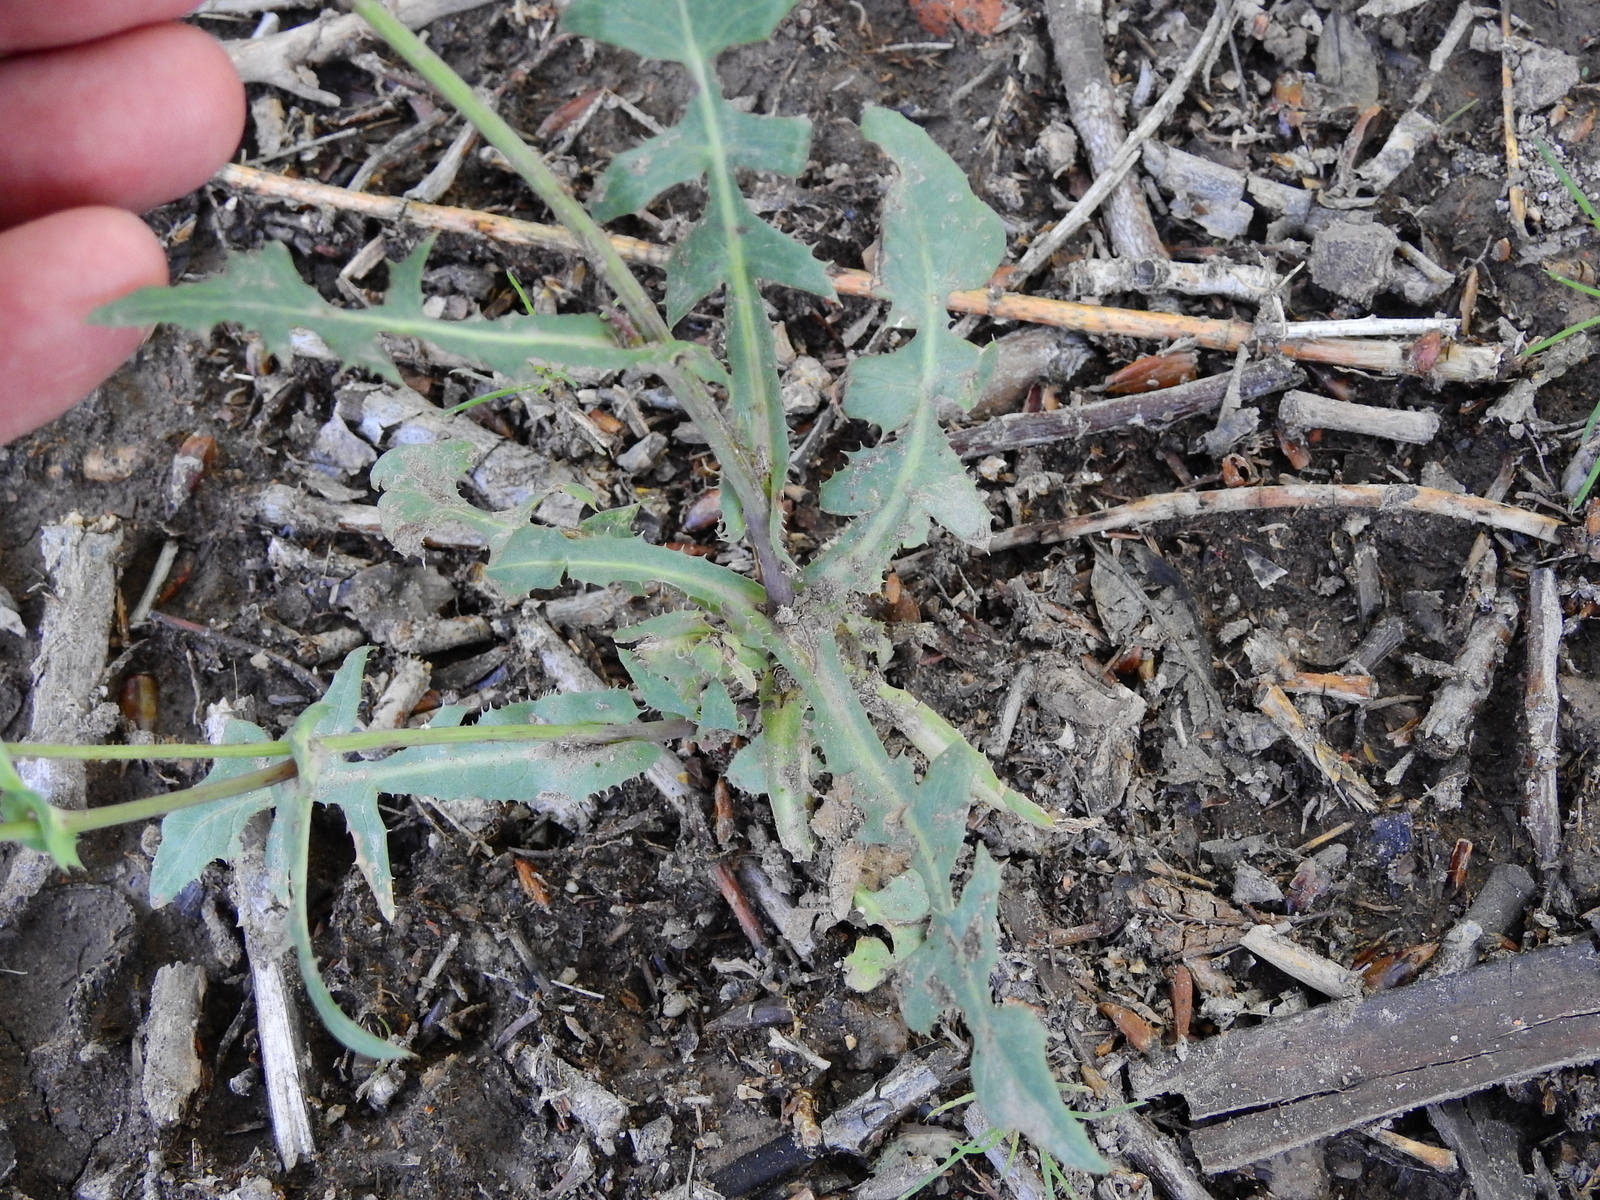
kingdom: Plantae
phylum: Tracheophyta
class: Magnoliopsida
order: Asterales
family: Asteraceae
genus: Sonchus
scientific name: Sonchus oleraceus
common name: Common sowthistle
